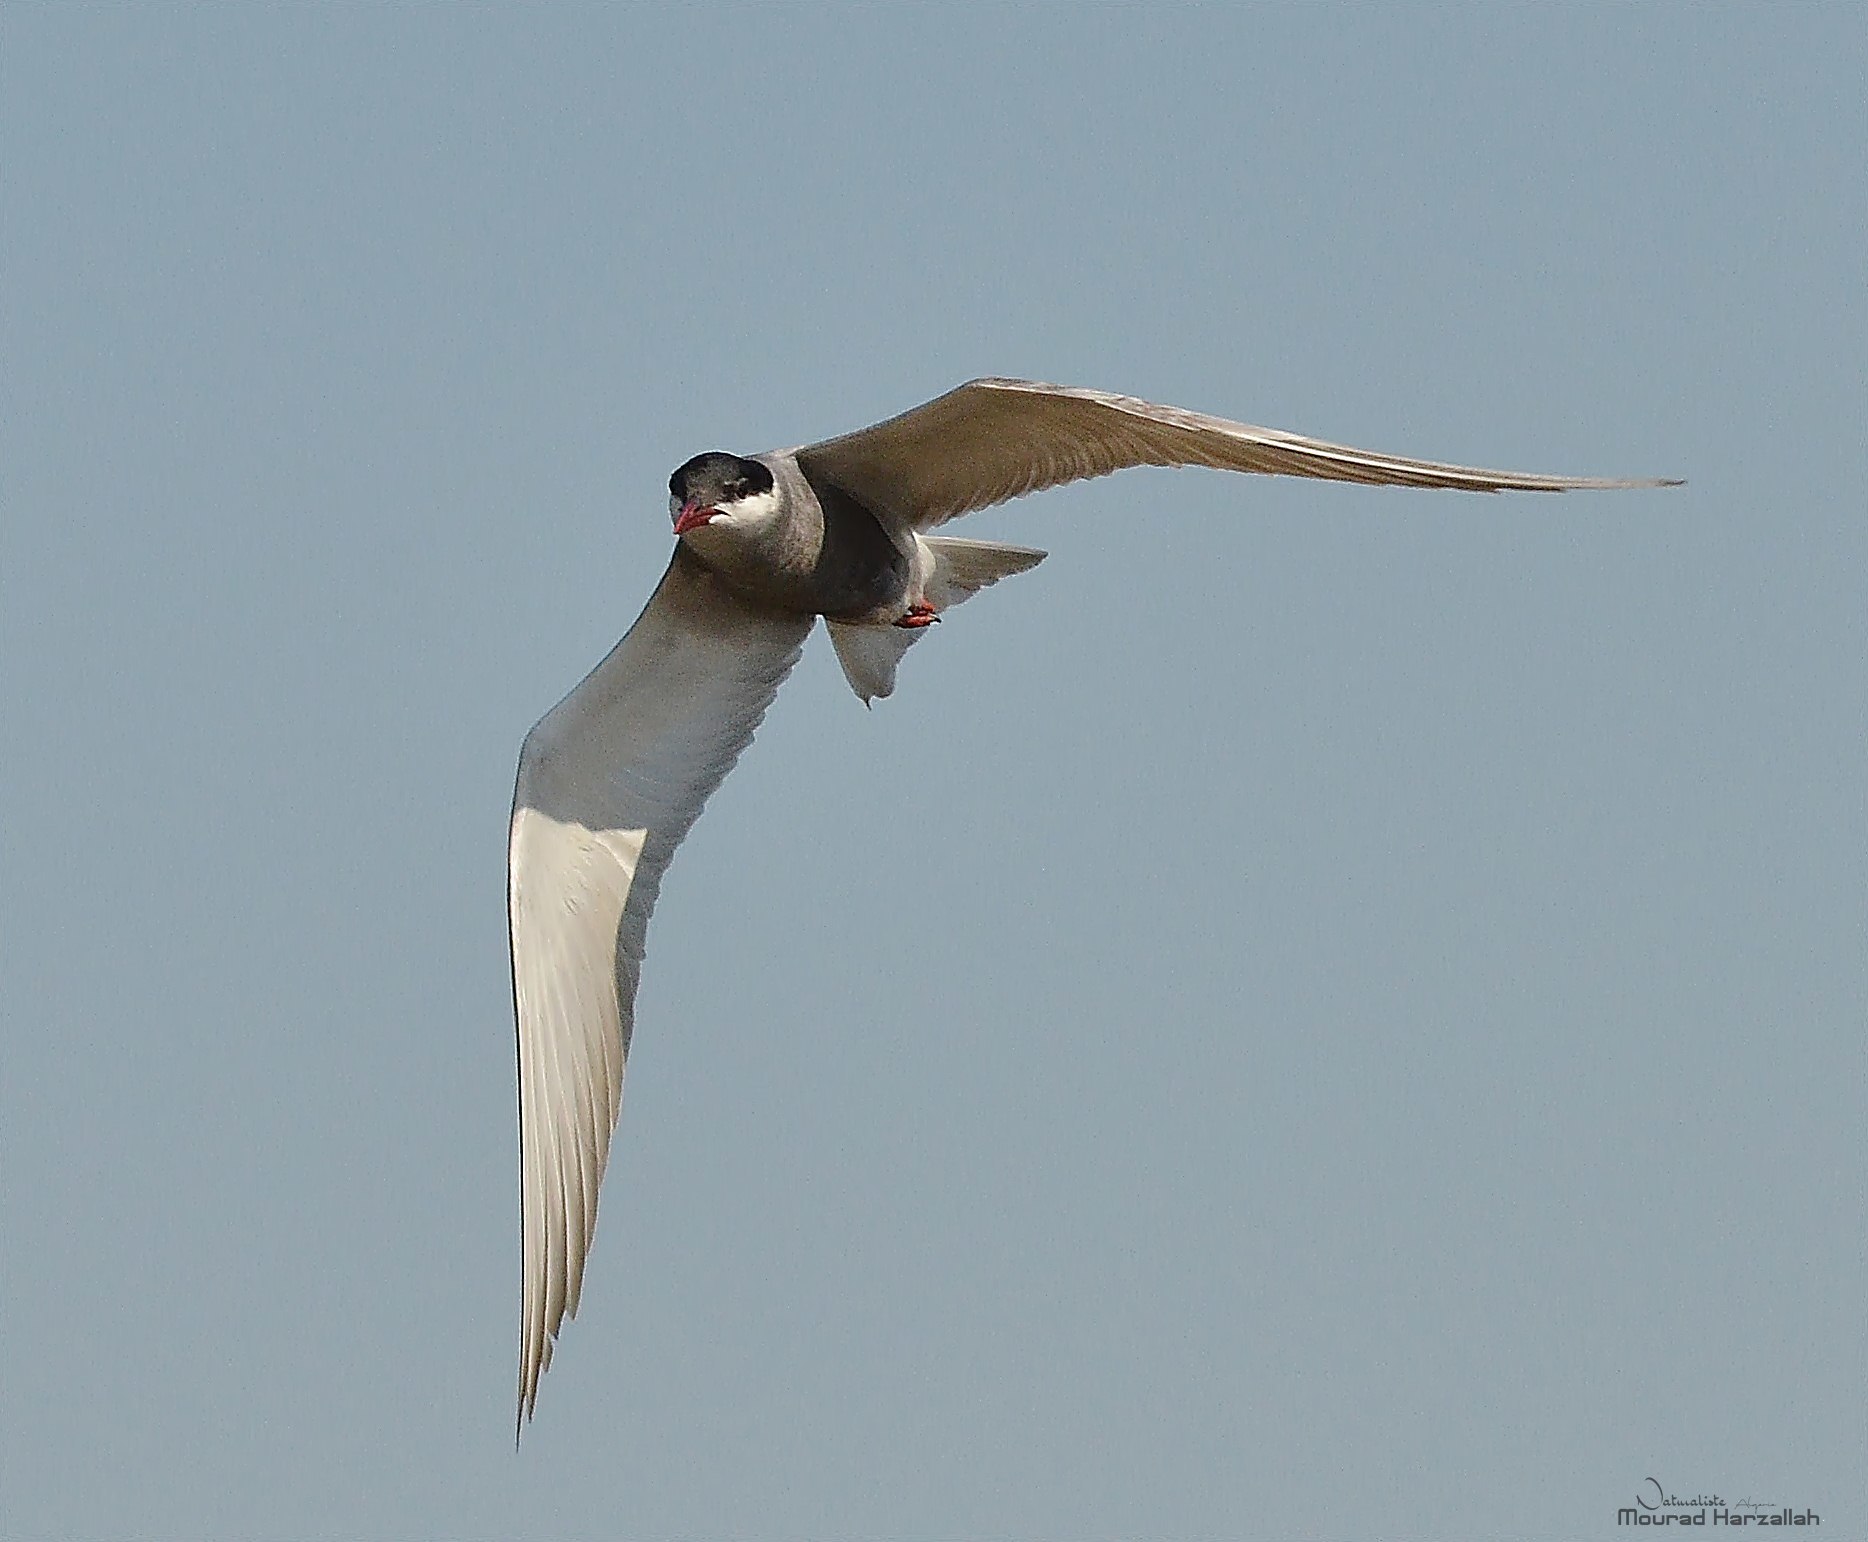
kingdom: Animalia
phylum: Chordata
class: Aves
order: Charadriiformes
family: Laridae
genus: Chlidonias
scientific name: Chlidonias hybrida
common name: Whiskered tern
